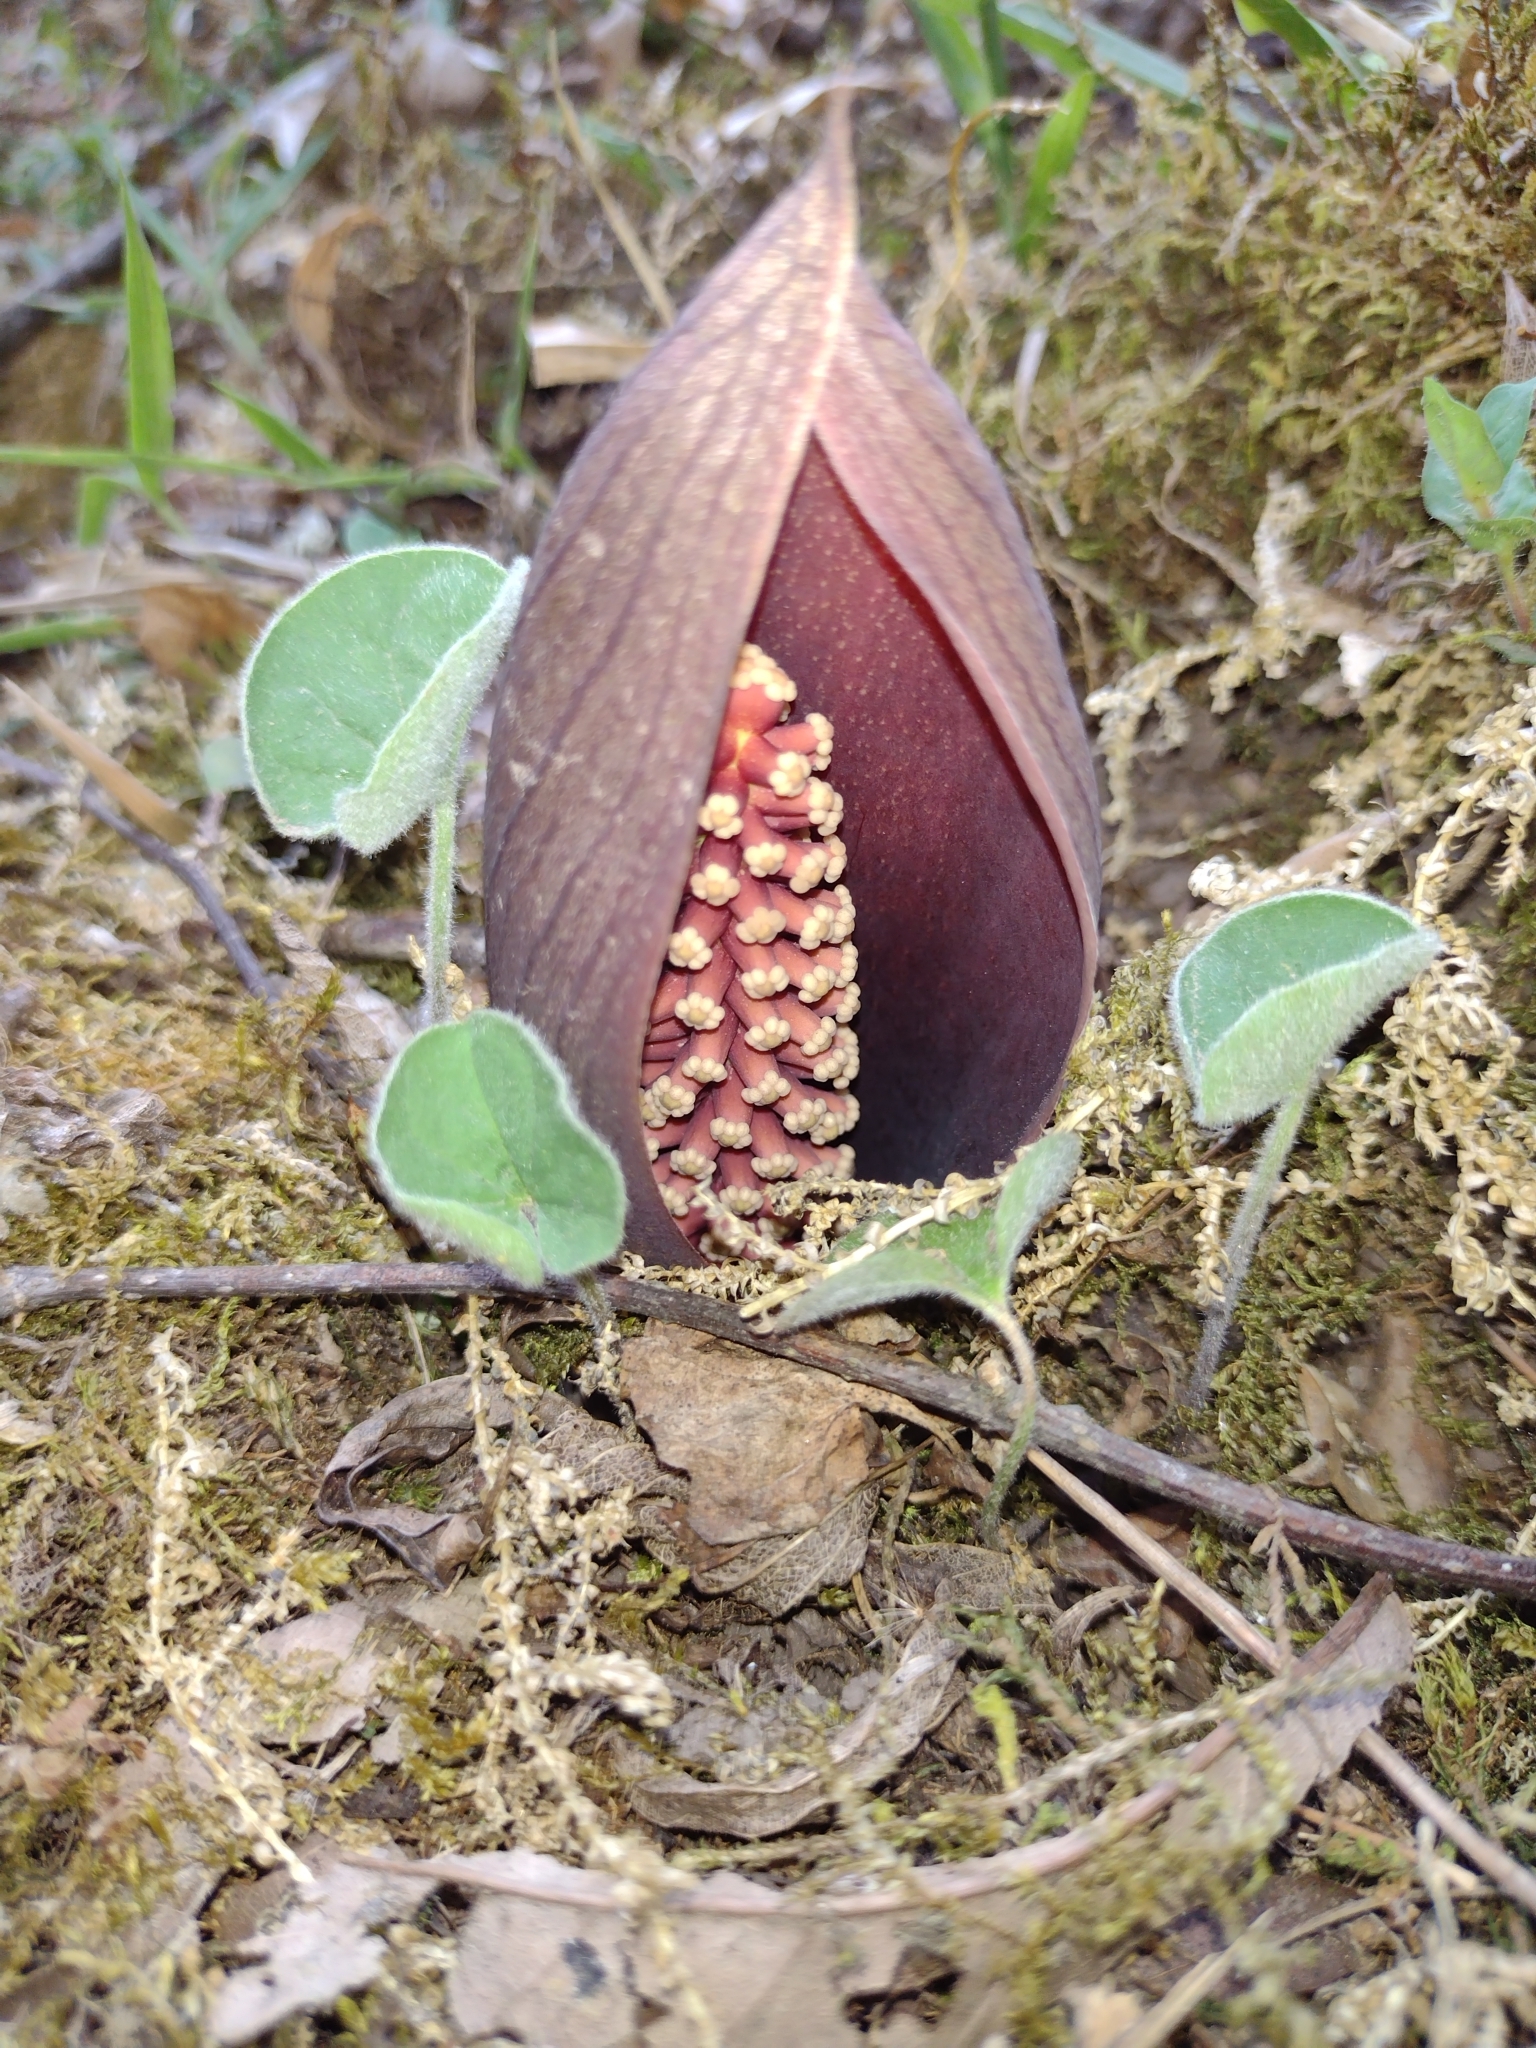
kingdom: Plantae
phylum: Tracheophyta
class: Liliopsida
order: Alismatales
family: Araceae
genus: Gorgonidium
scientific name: Gorgonidium vermicidum
